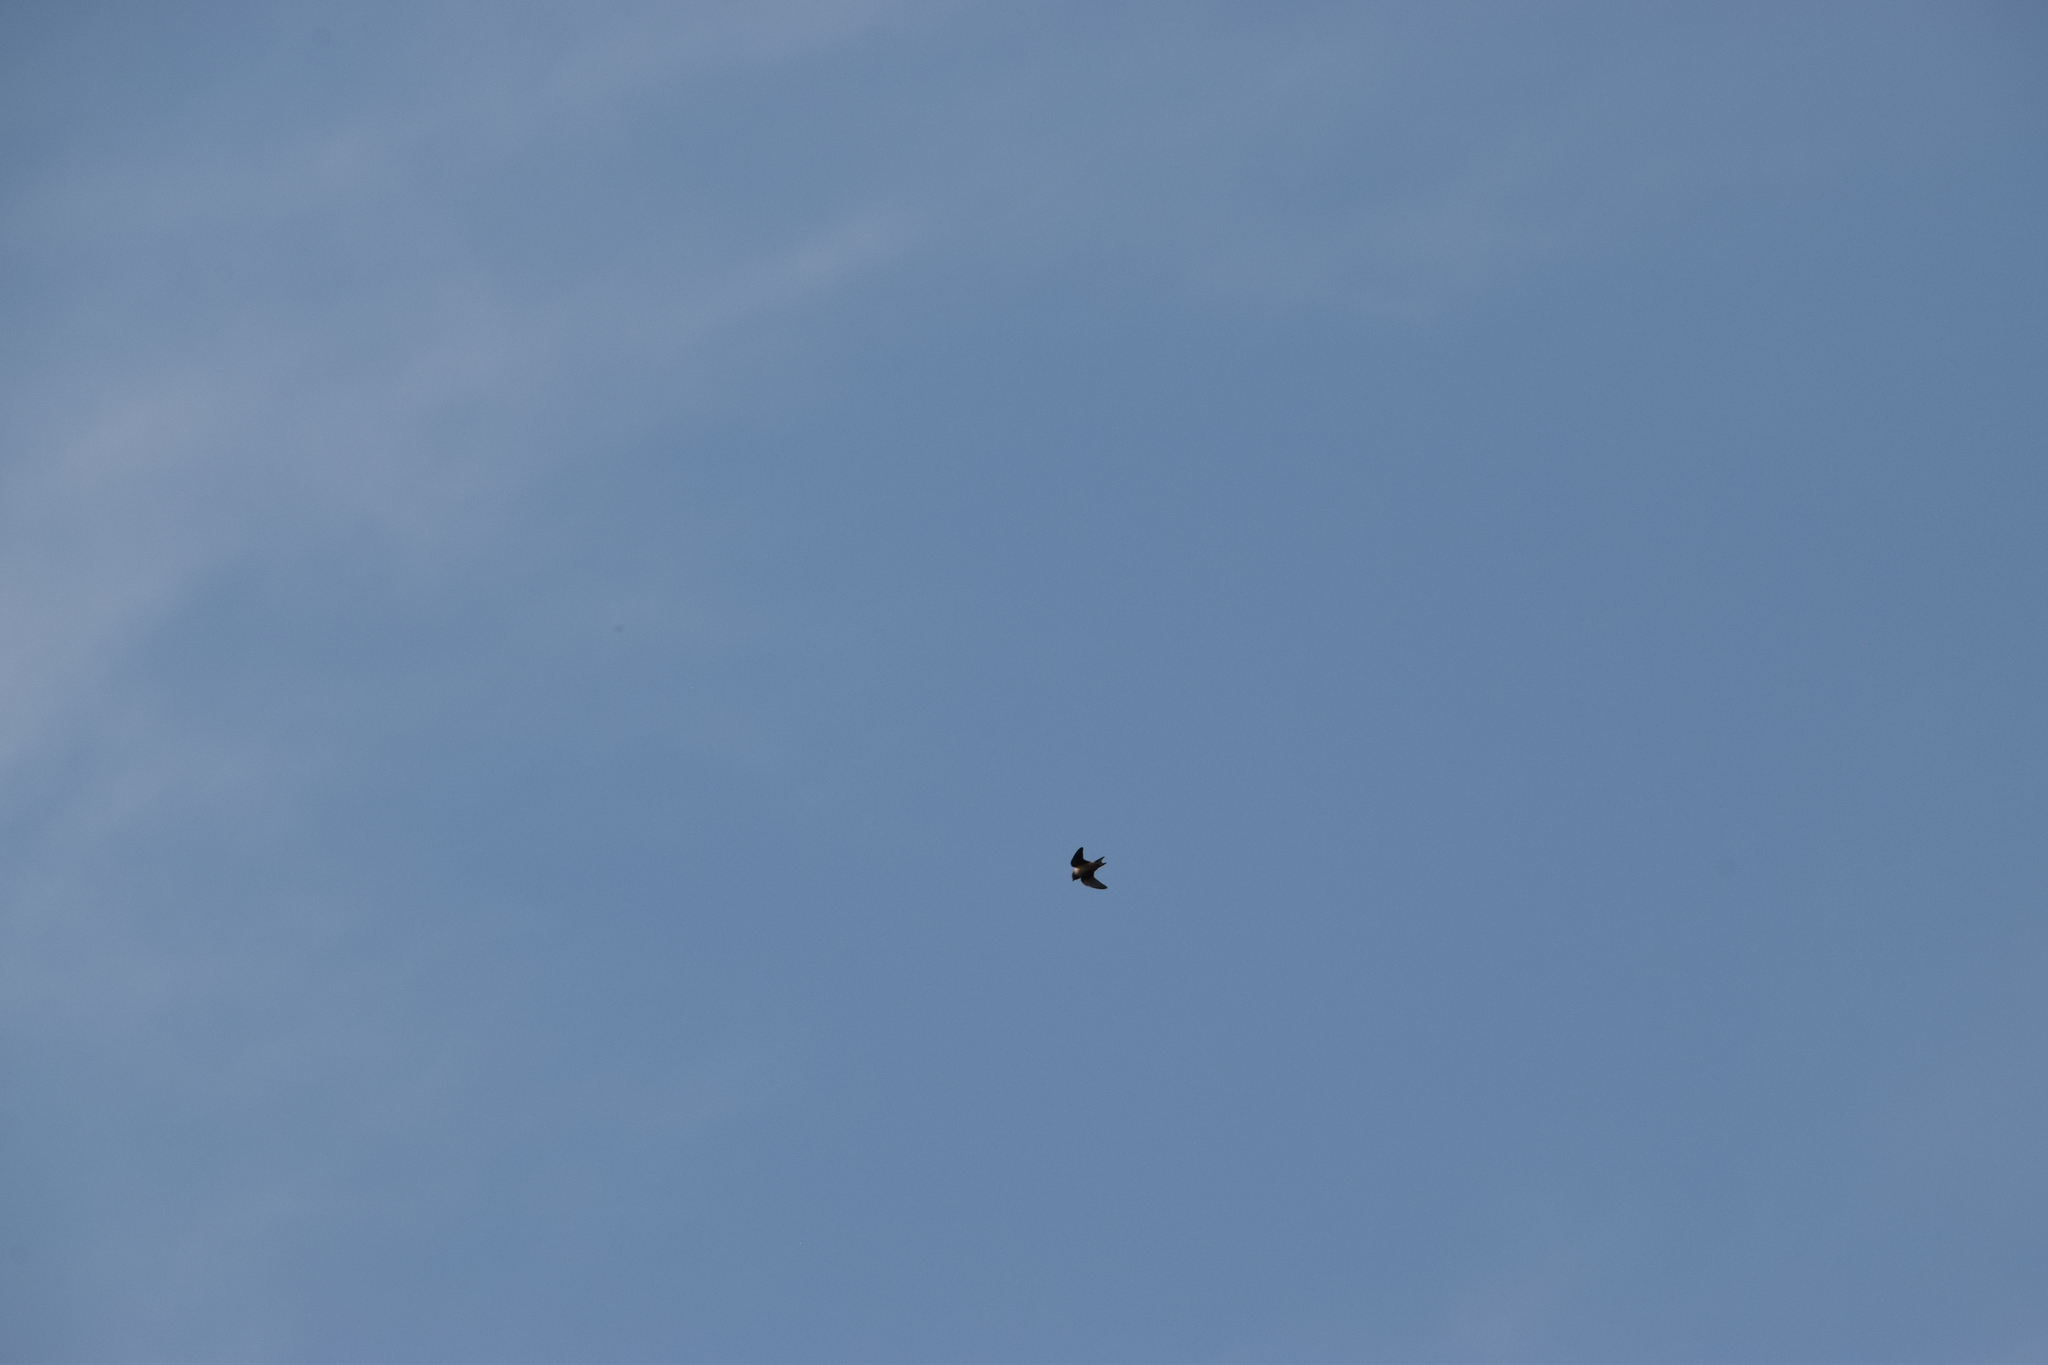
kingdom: Animalia
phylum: Chordata
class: Aves
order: Passeriformes
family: Hirundinidae
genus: Petrochelidon
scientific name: Petrochelidon pyrrhonota
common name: American cliff swallow
